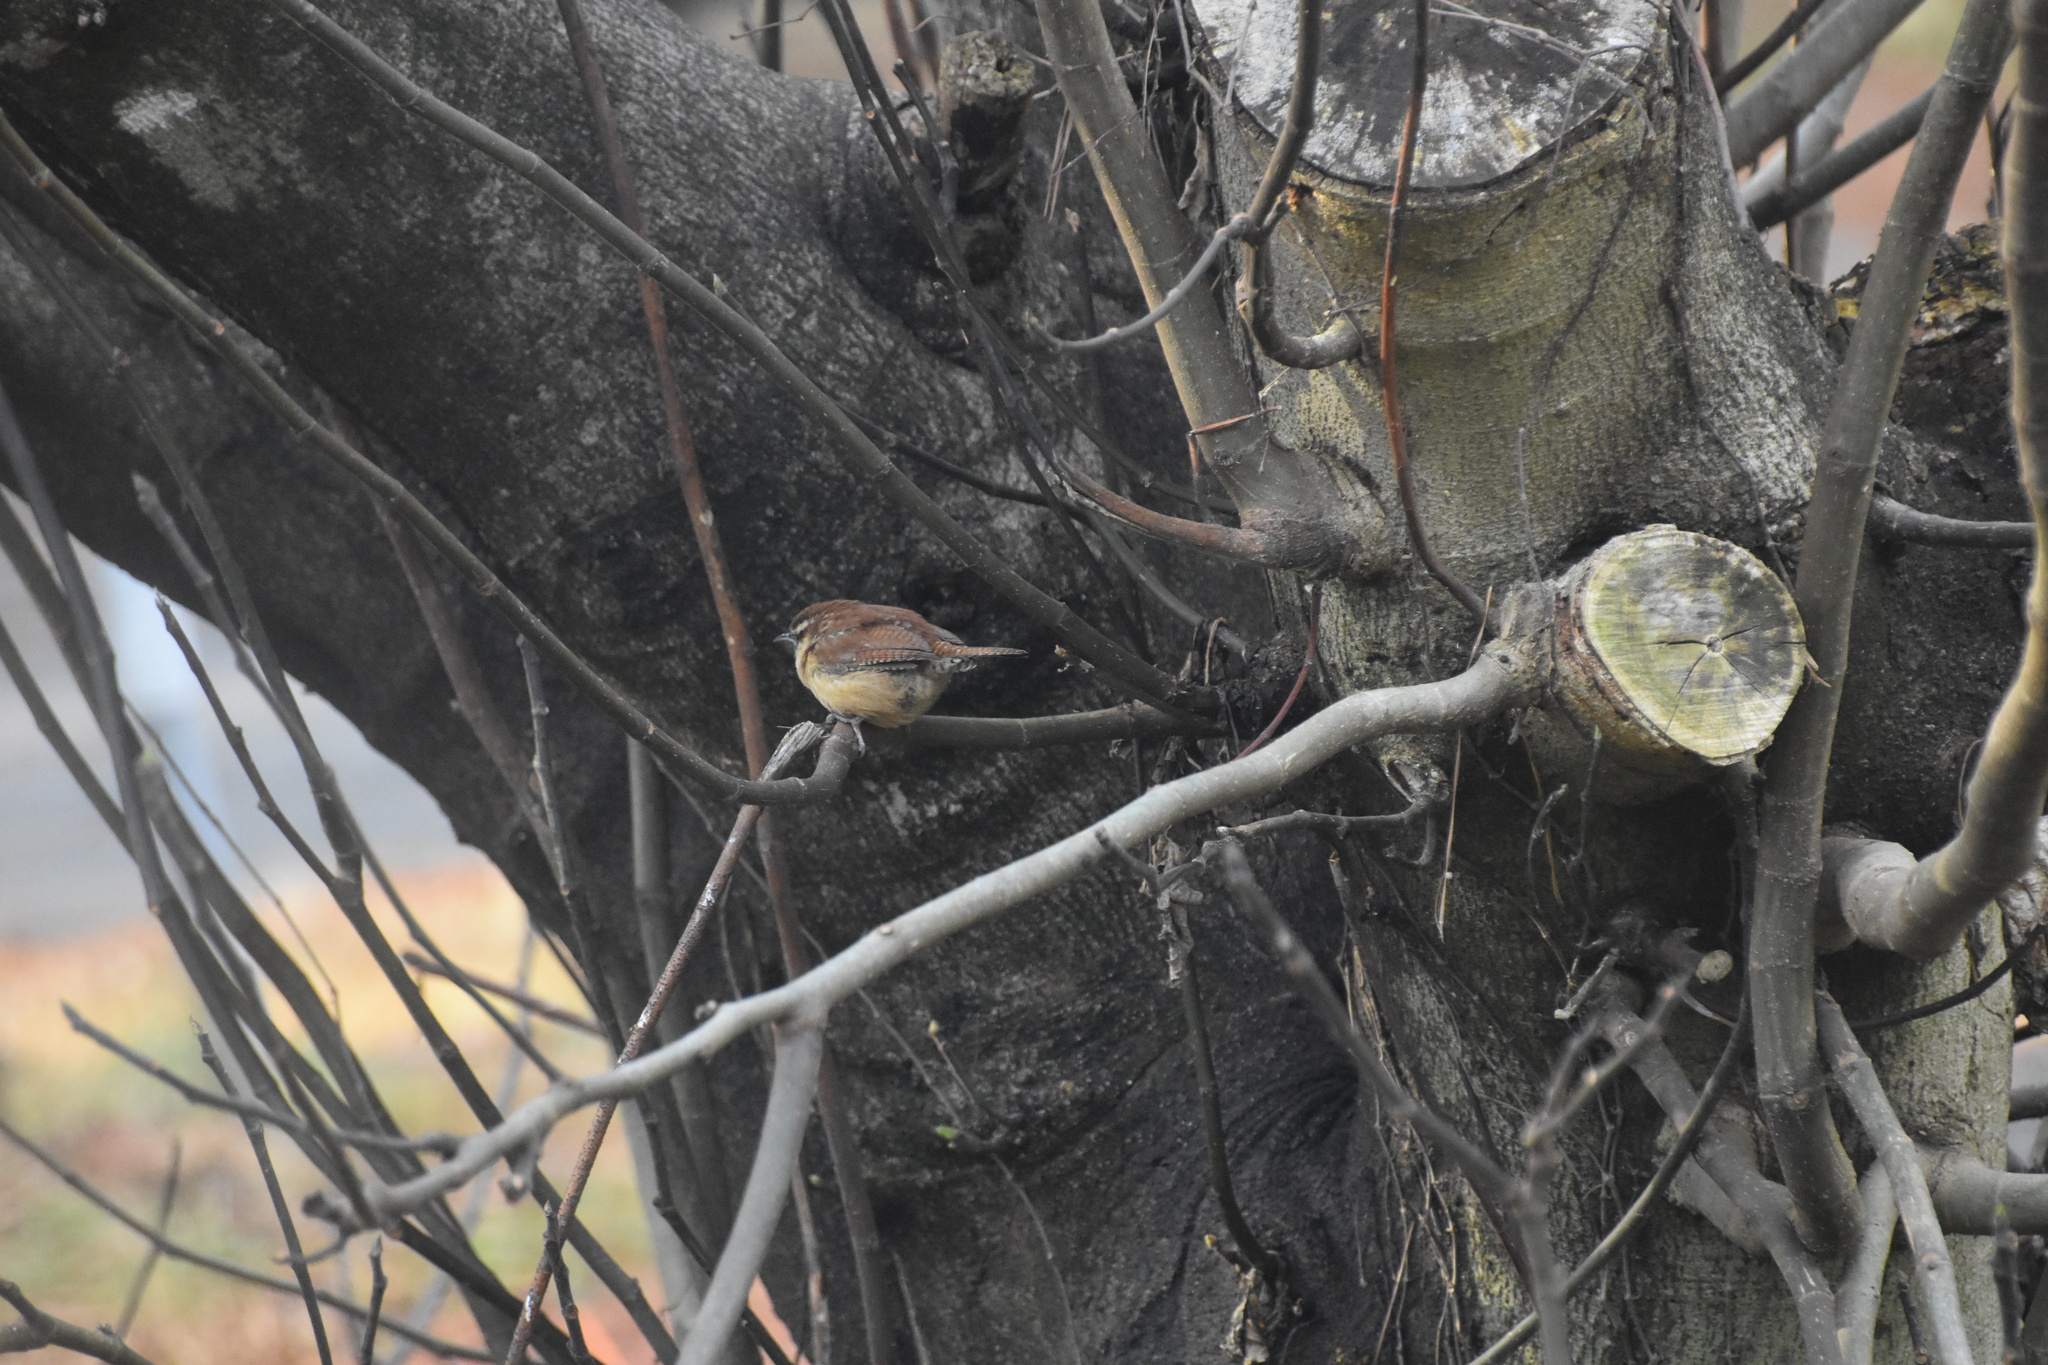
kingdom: Animalia
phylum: Chordata
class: Aves
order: Passeriformes
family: Troglodytidae
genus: Thryothorus
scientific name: Thryothorus ludovicianus
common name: Carolina wren
